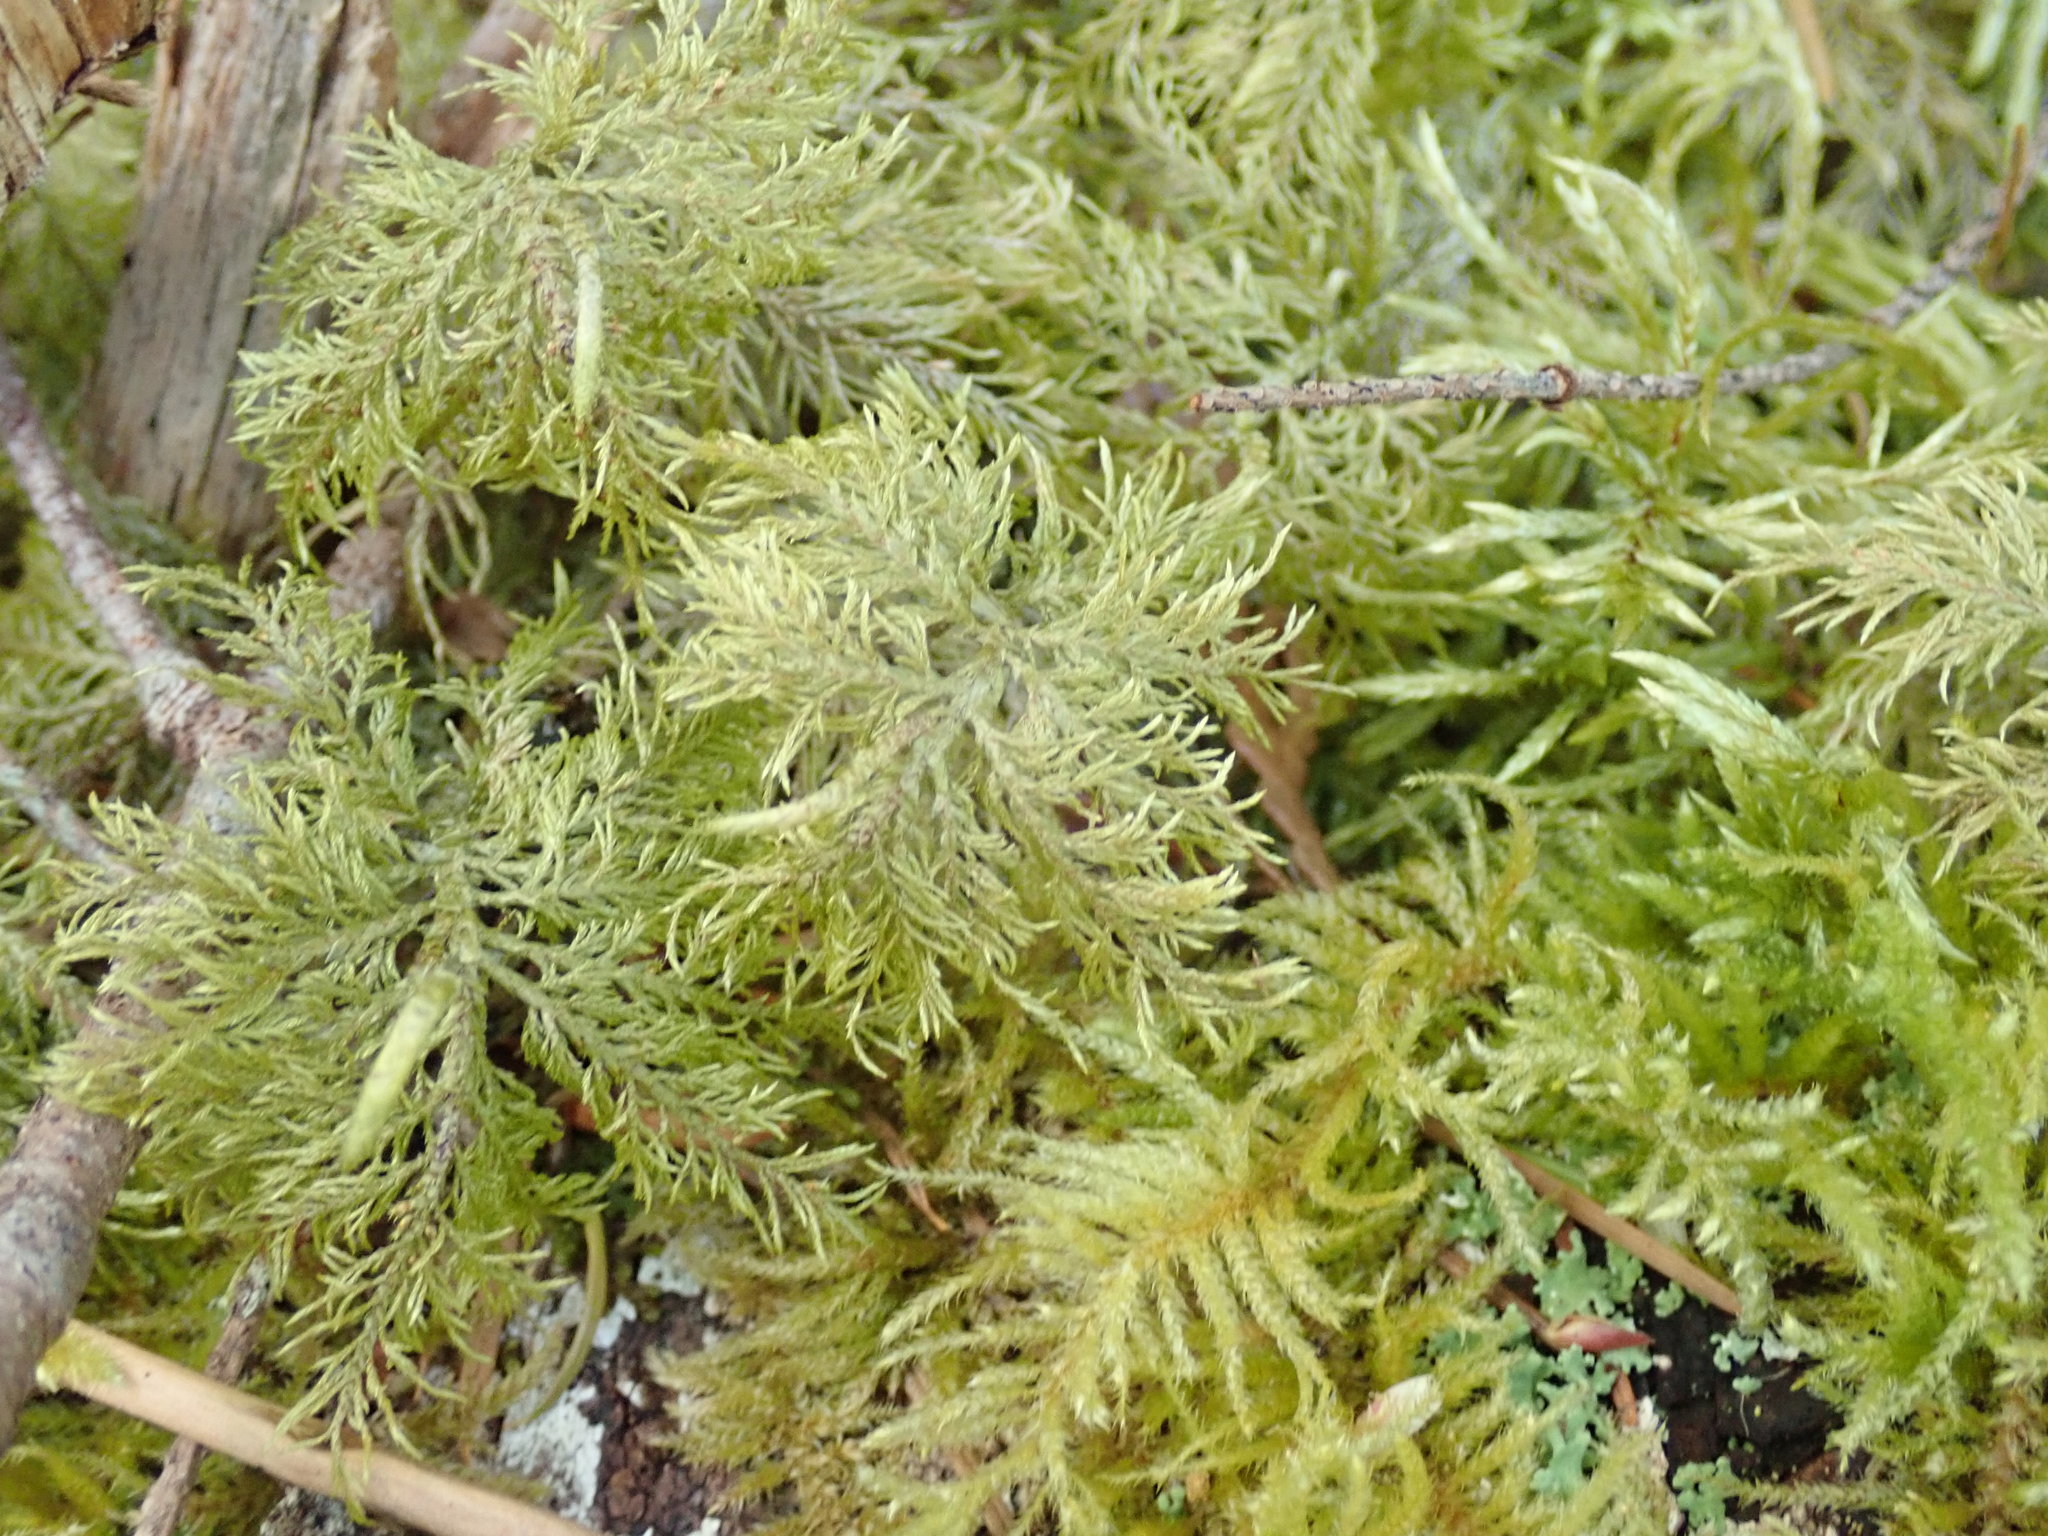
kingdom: Plantae
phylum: Bryophyta
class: Bryopsida
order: Hypnales
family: Hylocomiaceae
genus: Hylocomium
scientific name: Hylocomium splendens
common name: Stairstep moss
